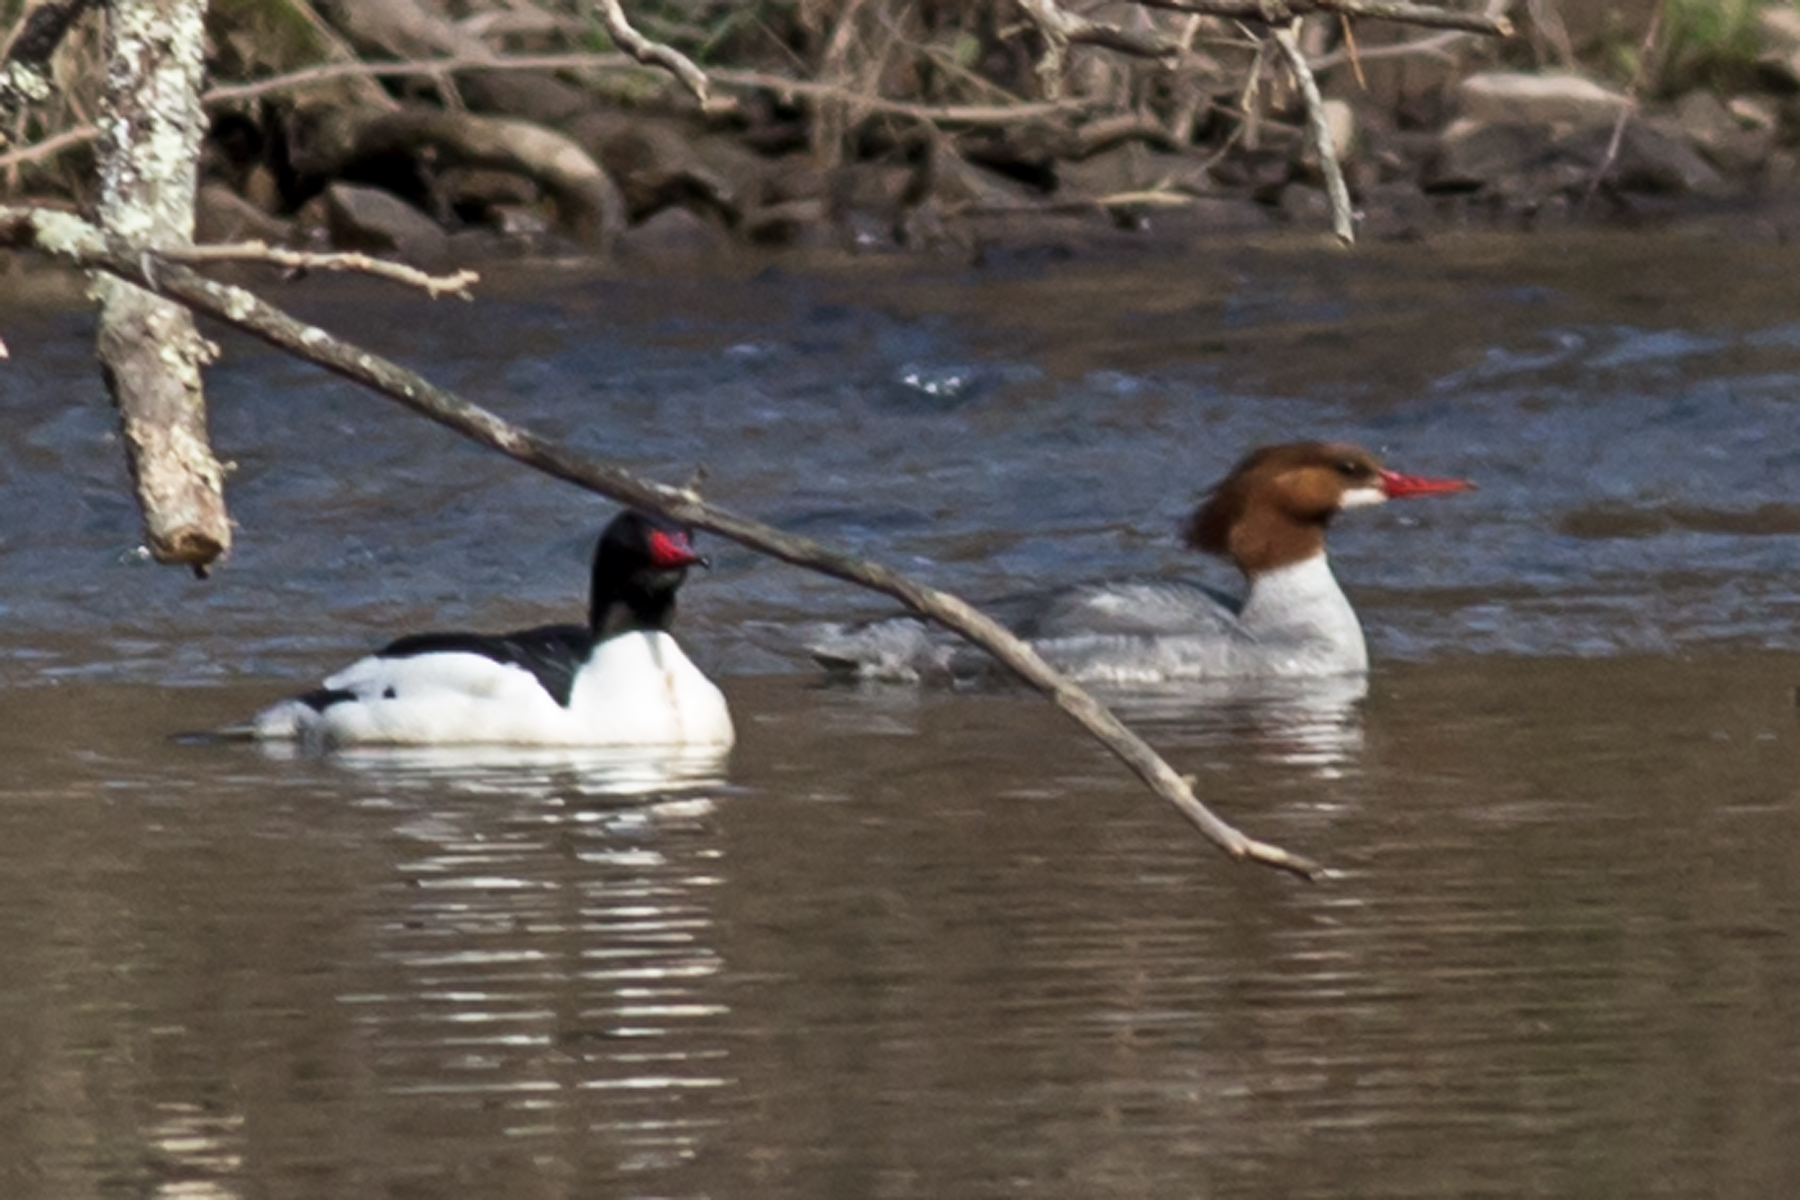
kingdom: Animalia
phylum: Chordata
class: Aves
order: Anseriformes
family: Anatidae
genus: Mergus
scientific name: Mergus merganser
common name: Common merganser
